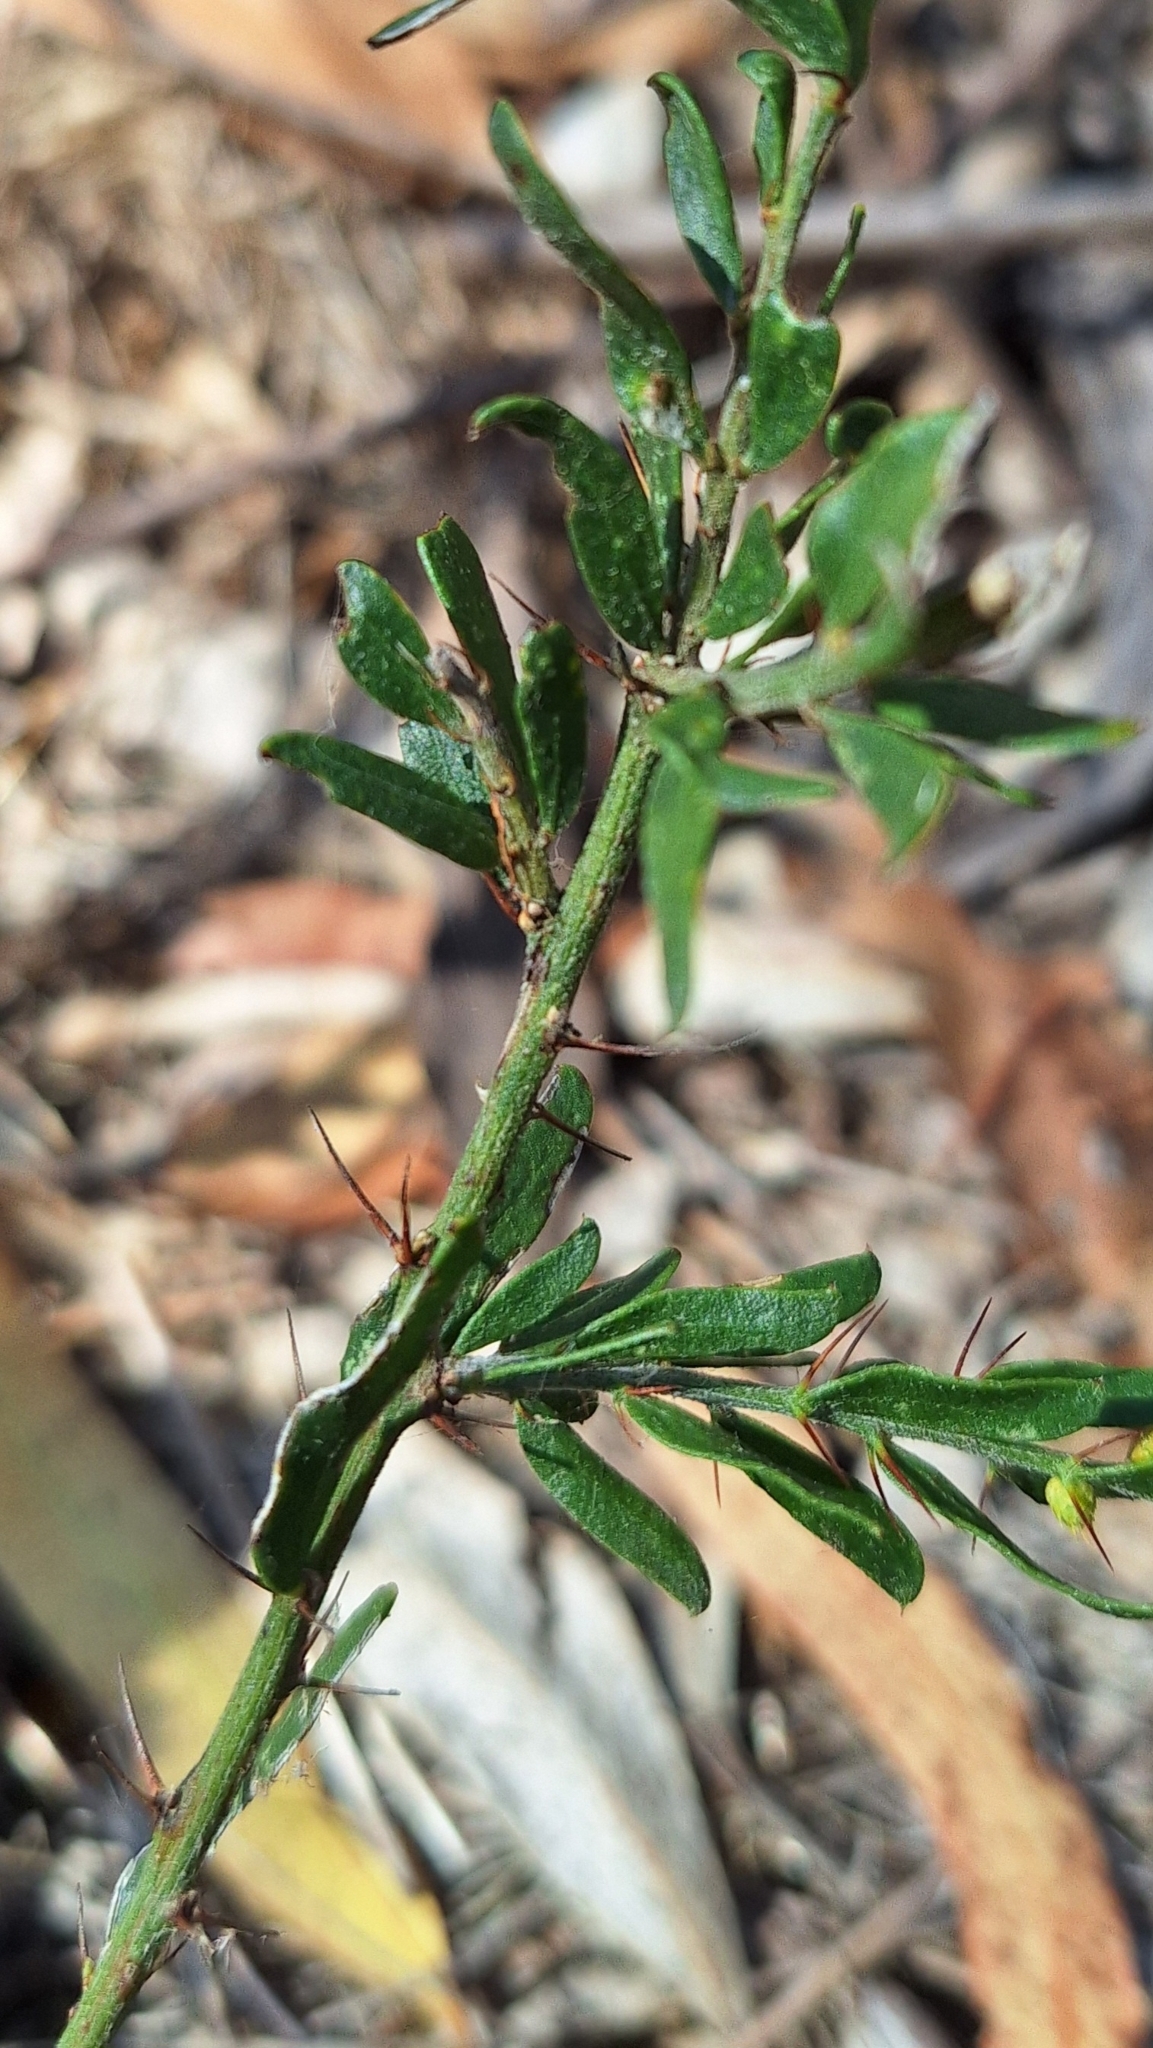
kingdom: Plantae
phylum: Tracheophyta
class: Magnoliopsida
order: Fabales
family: Fabaceae
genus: Acacia
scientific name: Acacia paradoxa
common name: Paradox acacia
